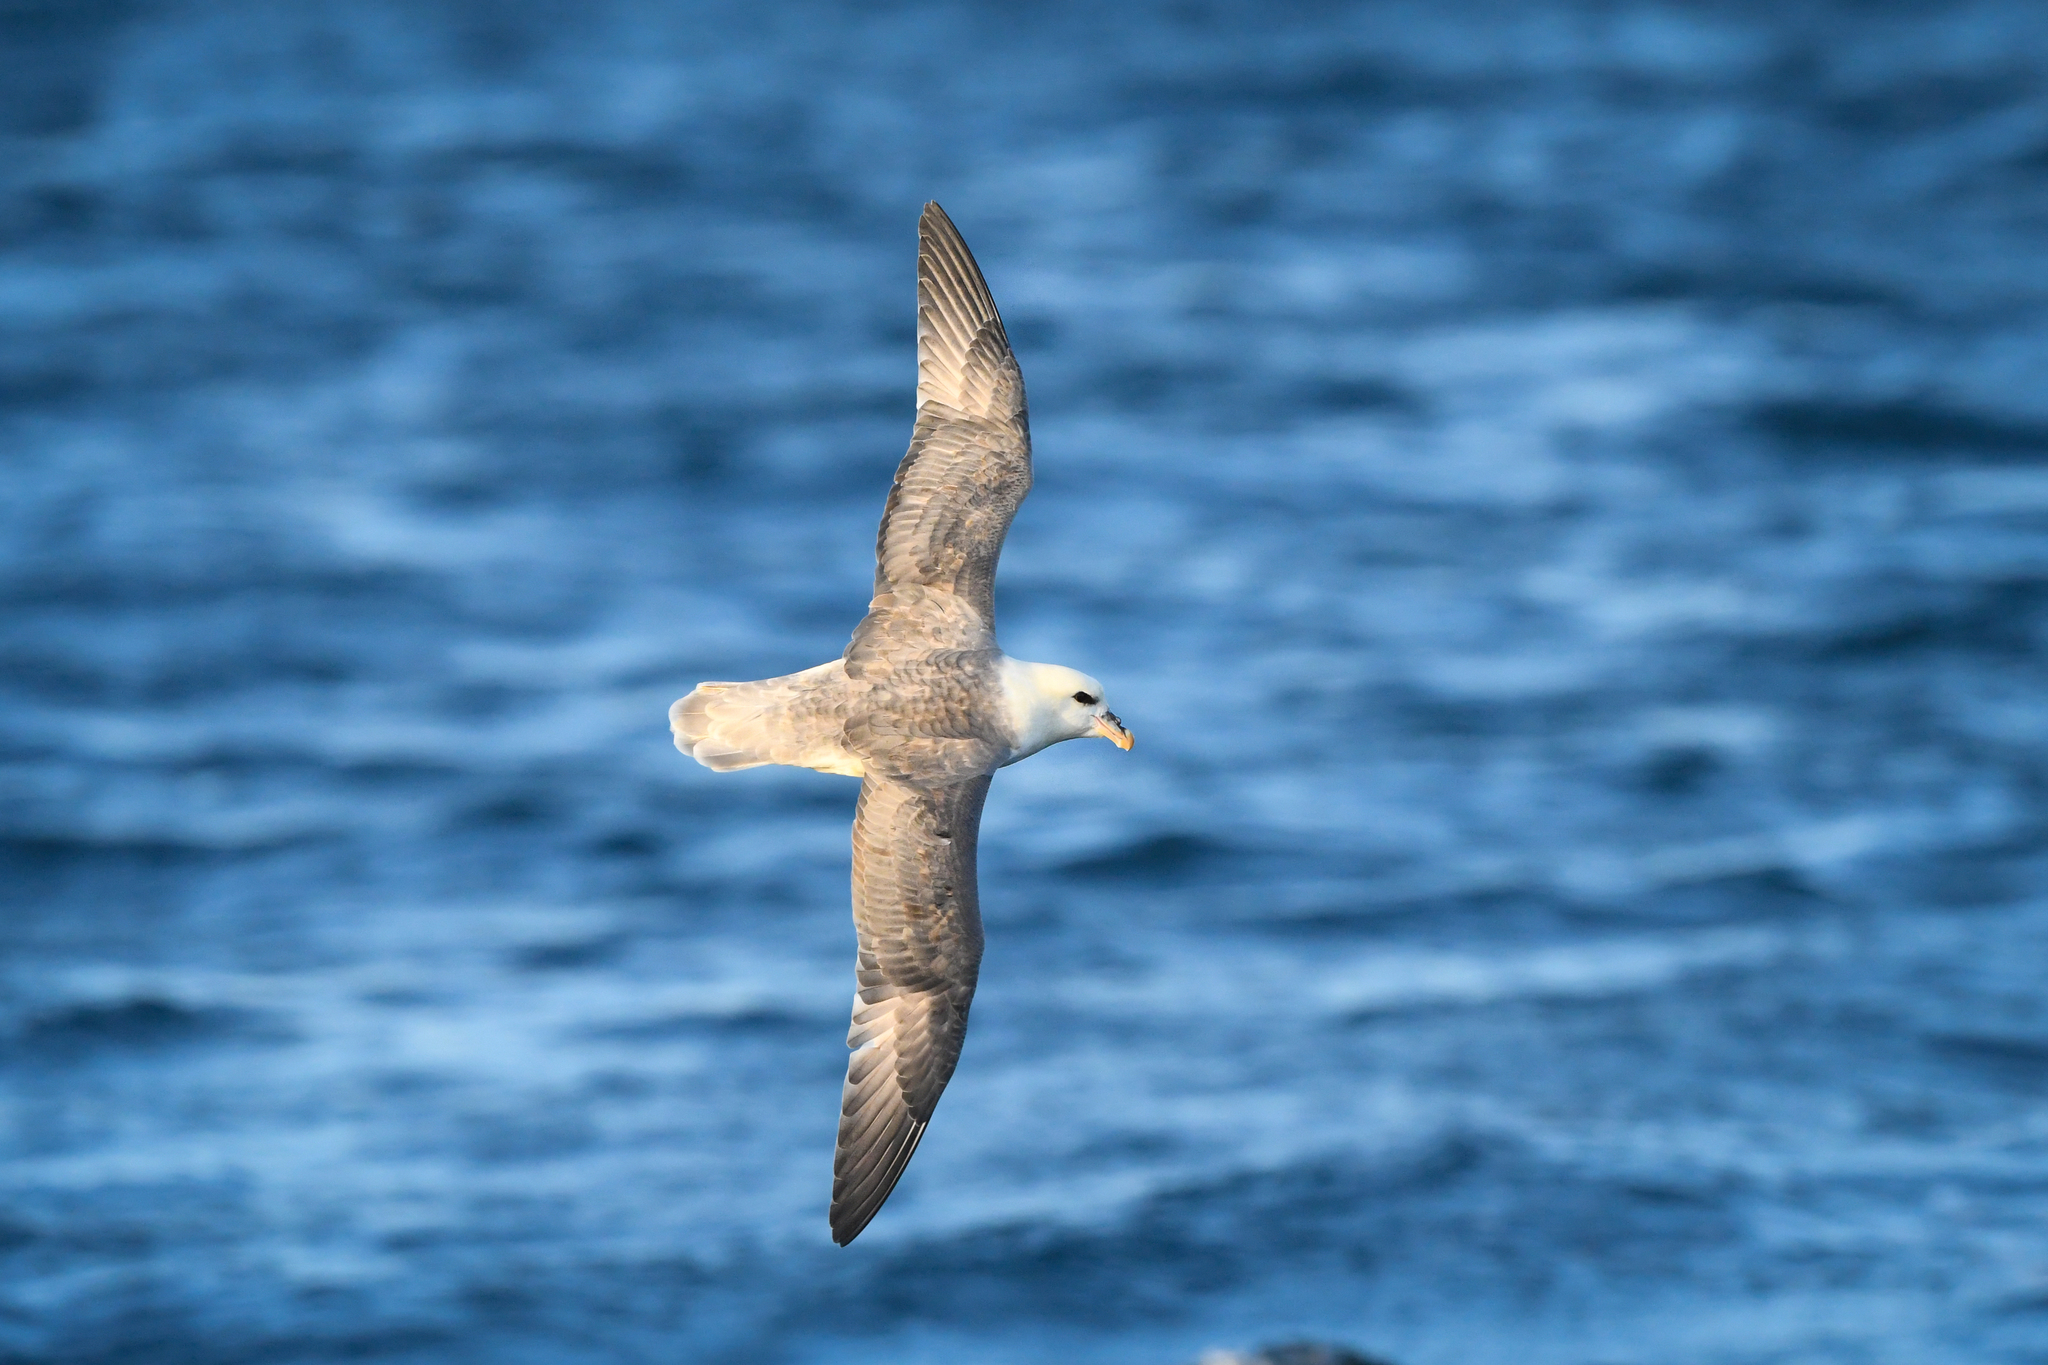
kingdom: Animalia
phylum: Chordata
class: Aves
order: Procellariiformes
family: Procellariidae
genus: Fulmarus
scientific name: Fulmarus glacialis
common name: Northern fulmar
